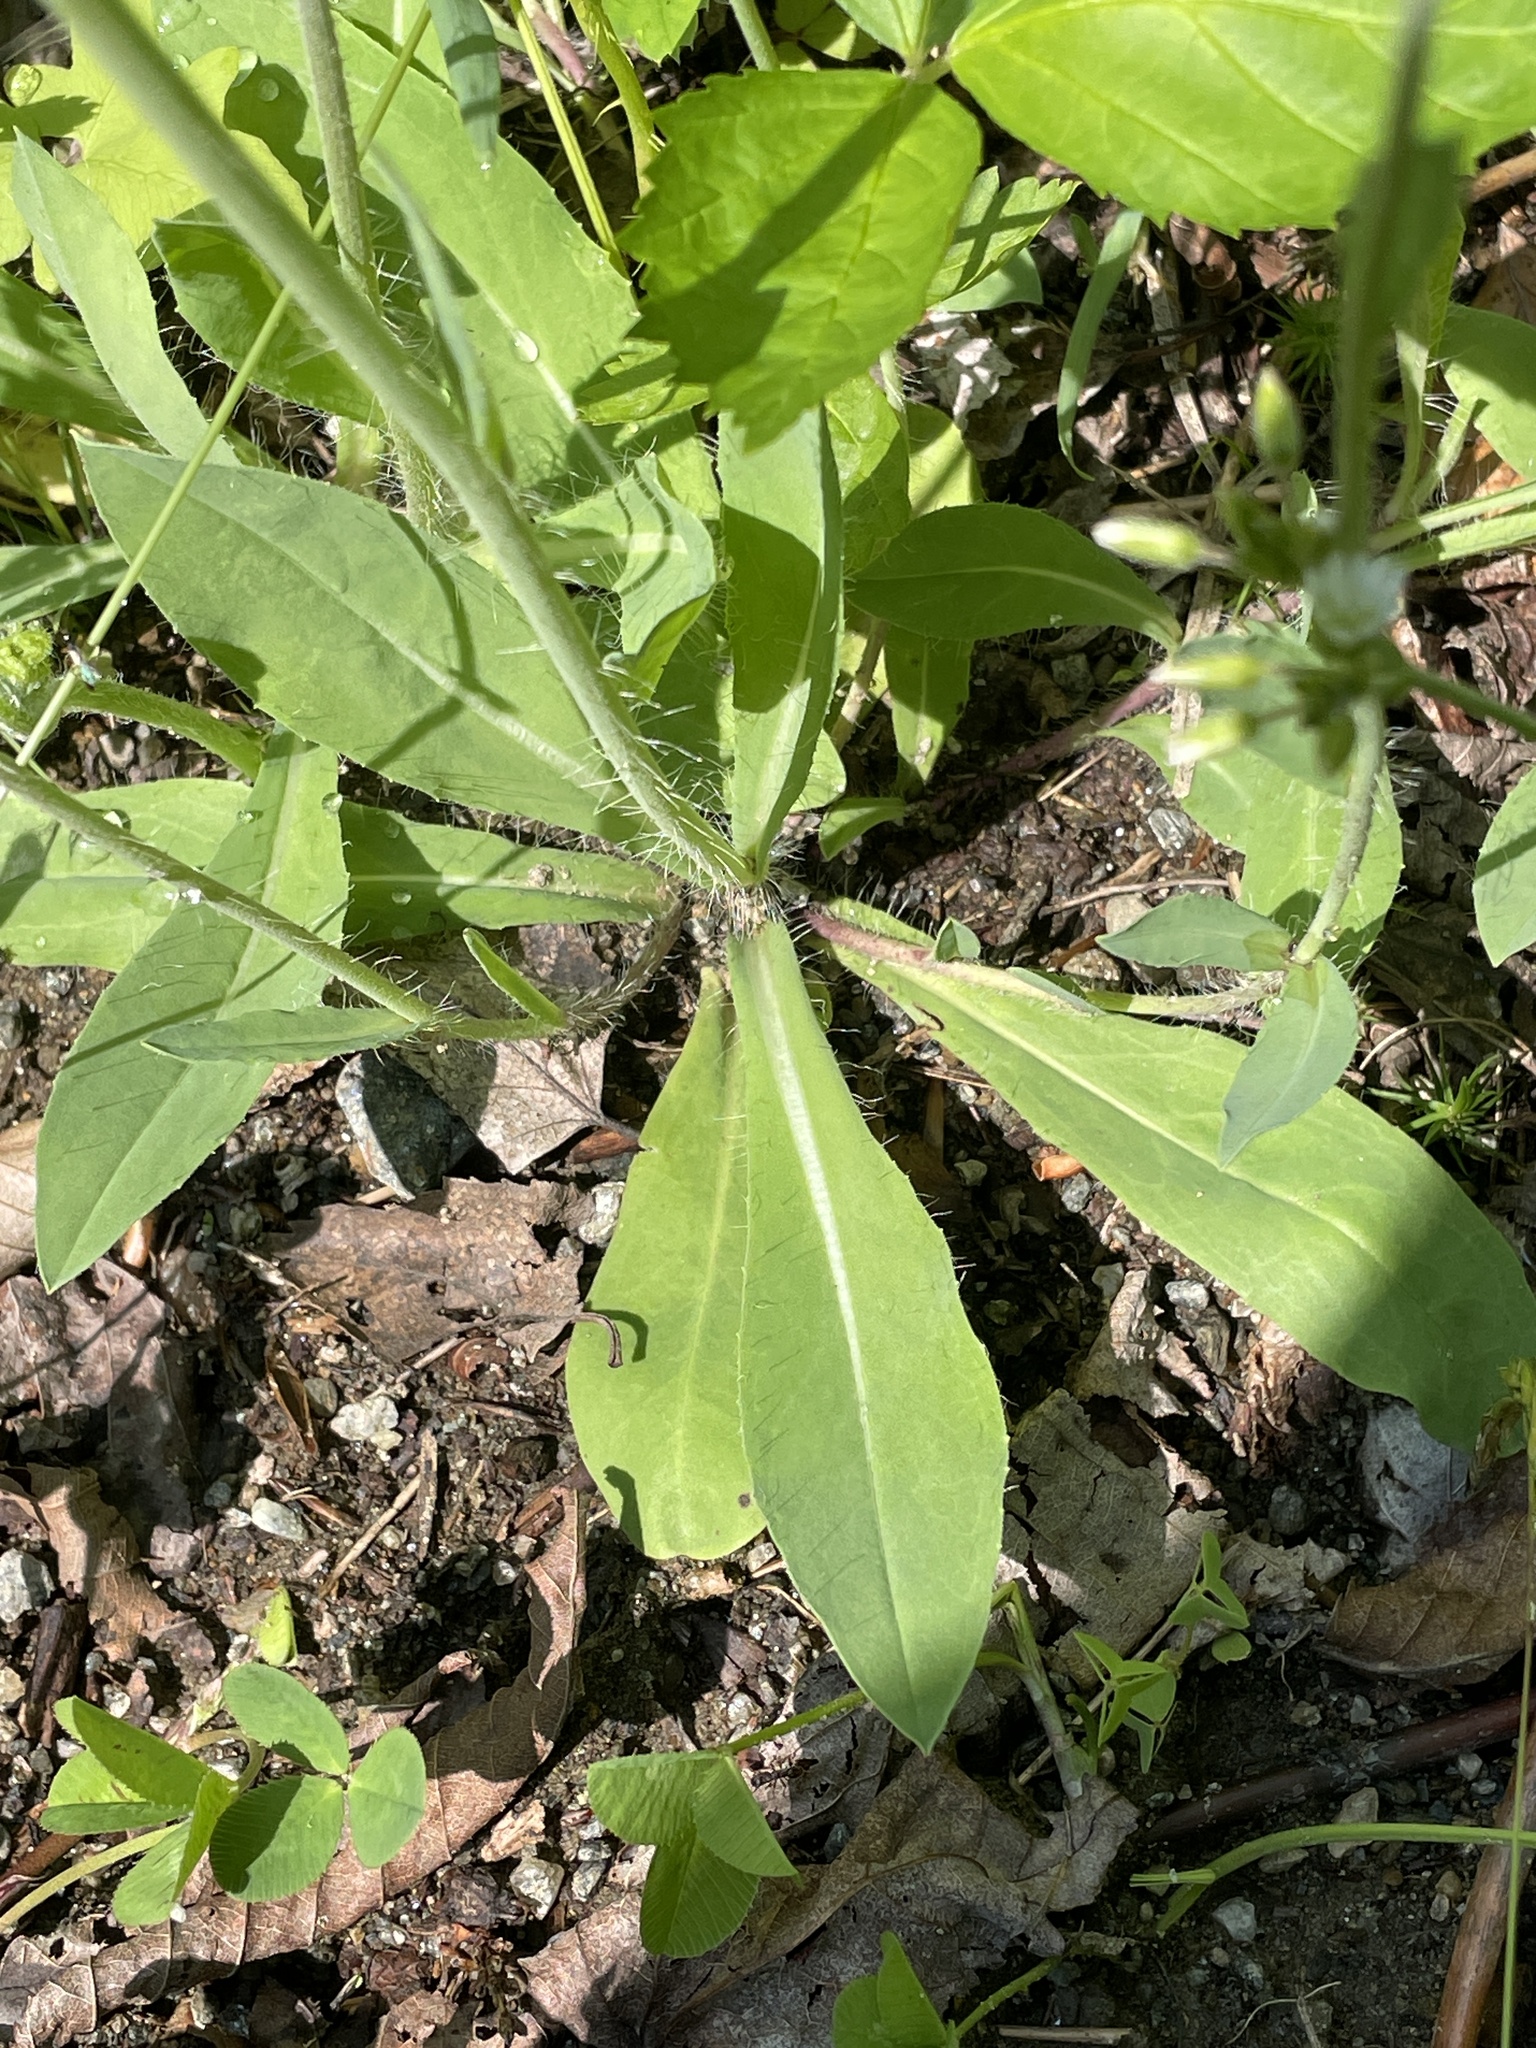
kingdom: Plantae
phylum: Tracheophyta
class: Magnoliopsida
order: Asterales
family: Asteraceae
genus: Pilosella
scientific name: Pilosella piloselloides
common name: Glaucous king-devil
